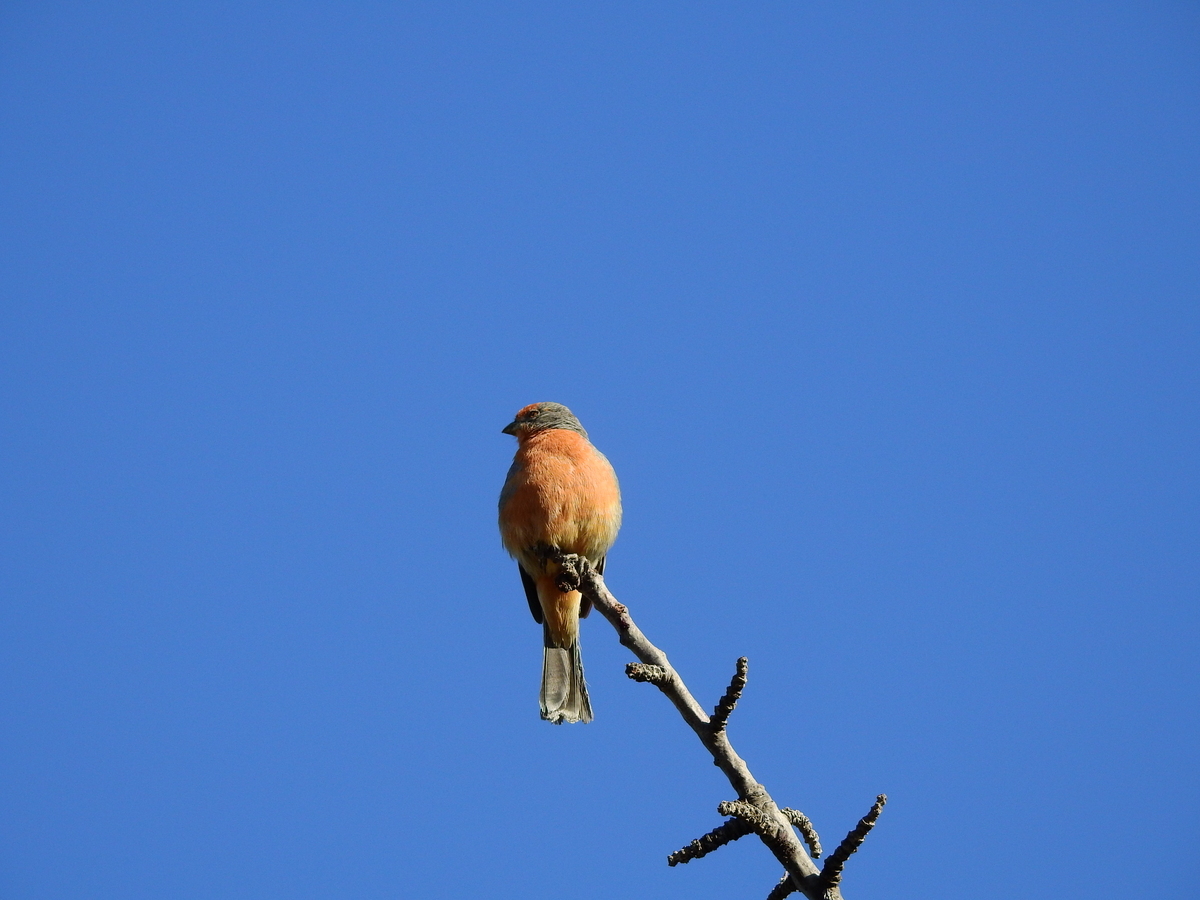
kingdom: Animalia
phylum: Chordata
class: Aves
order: Passeriformes
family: Cotingidae
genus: Phytotoma
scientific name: Phytotoma rutila
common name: White-tipped plantcutter
